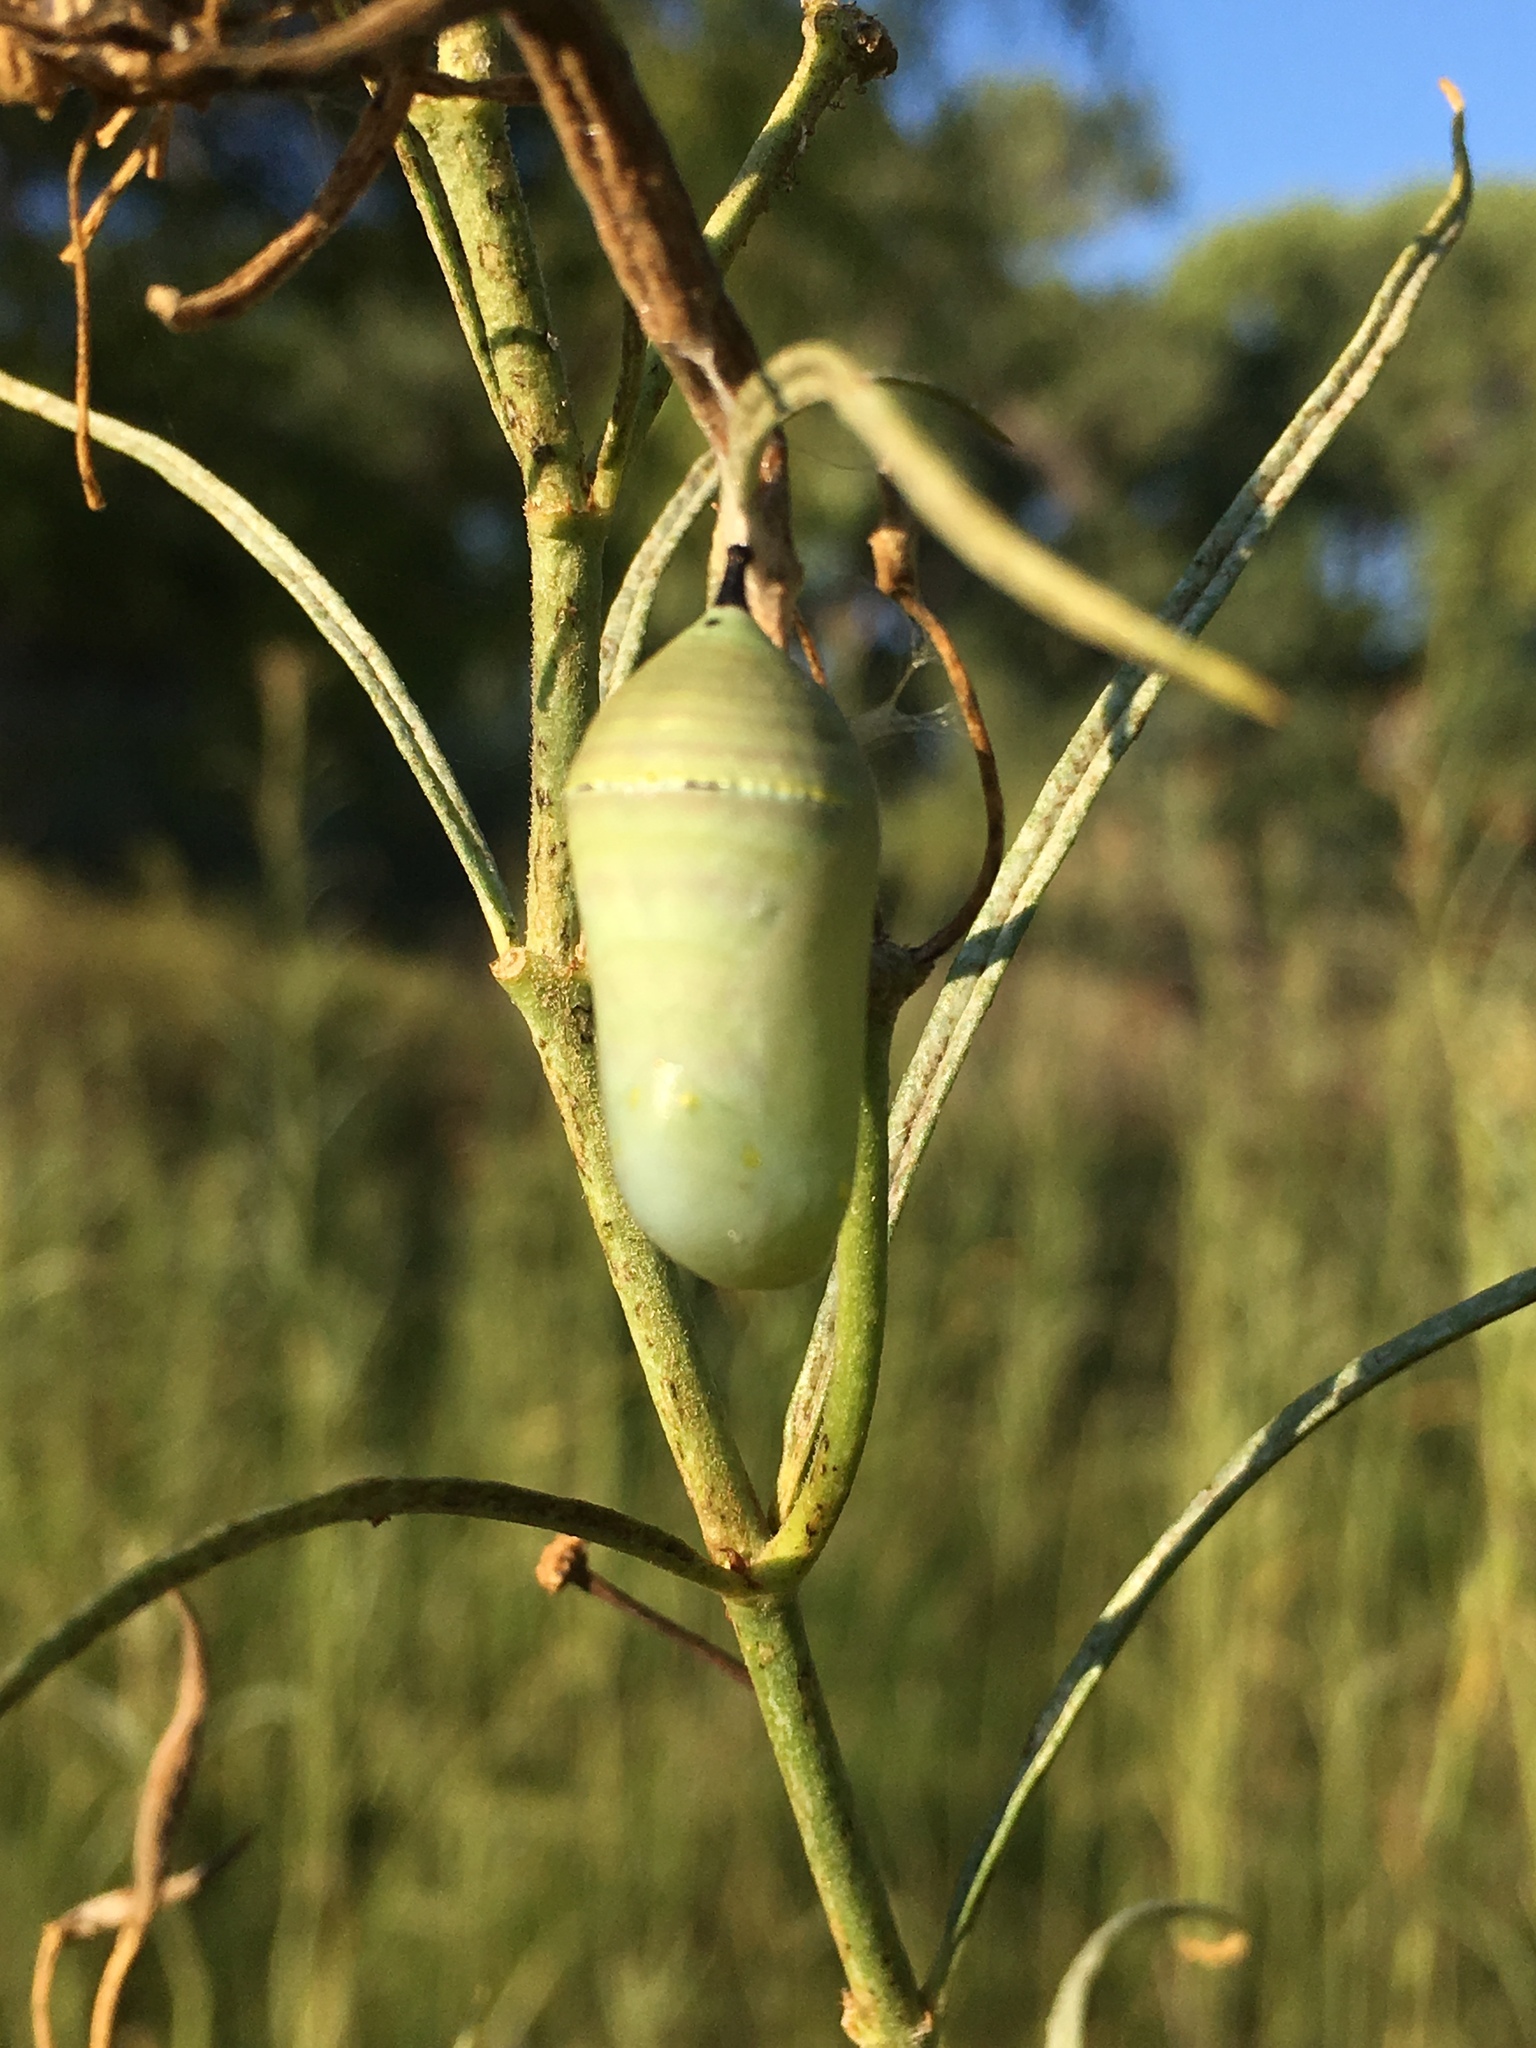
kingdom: Animalia
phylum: Arthropoda
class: Insecta
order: Lepidoptera
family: Nymphalidae
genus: Danaus
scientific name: Danaus plexippus
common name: Monarch
